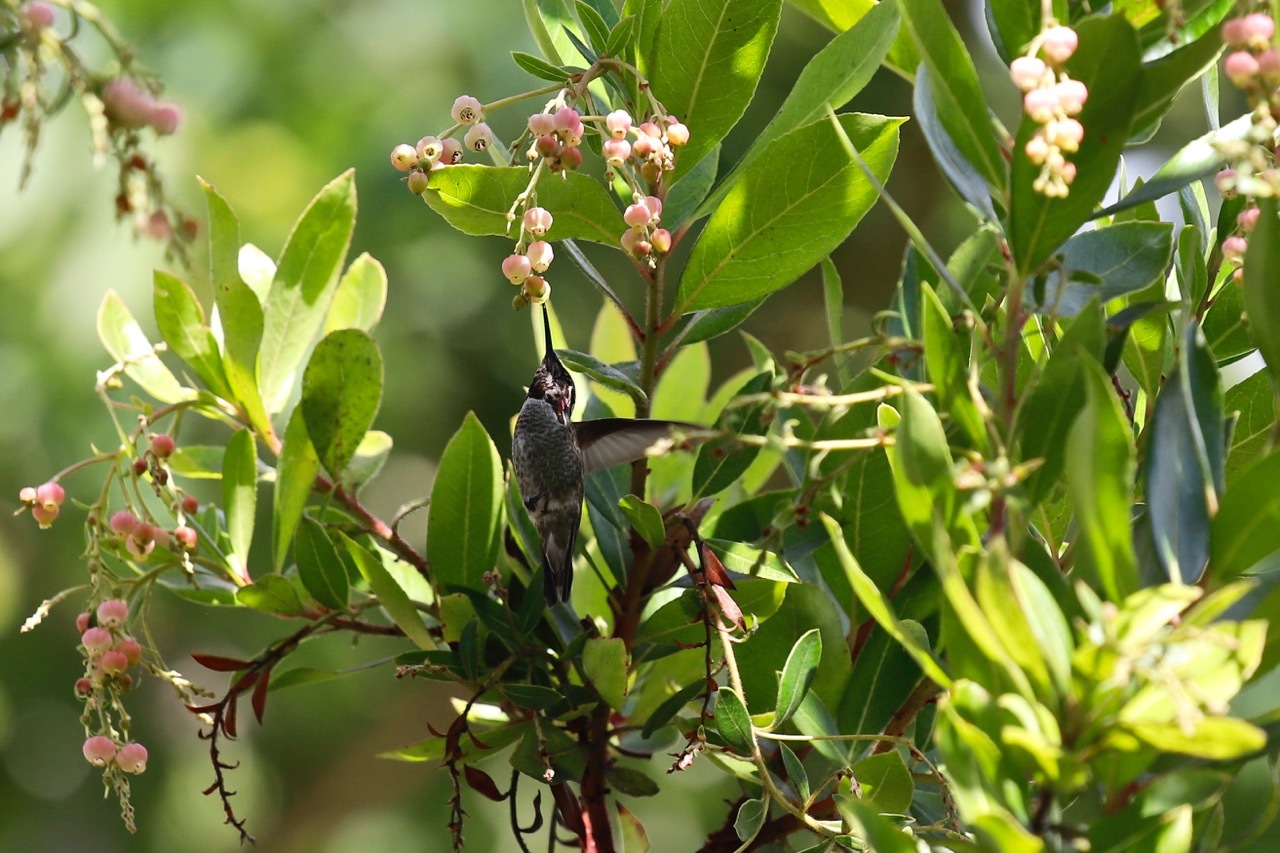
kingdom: Animalia
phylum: Chordata
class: Aves
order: Apodiformes
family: Trochilidae
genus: Calypte
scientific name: Calypte anna
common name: Anna's hummingbird
